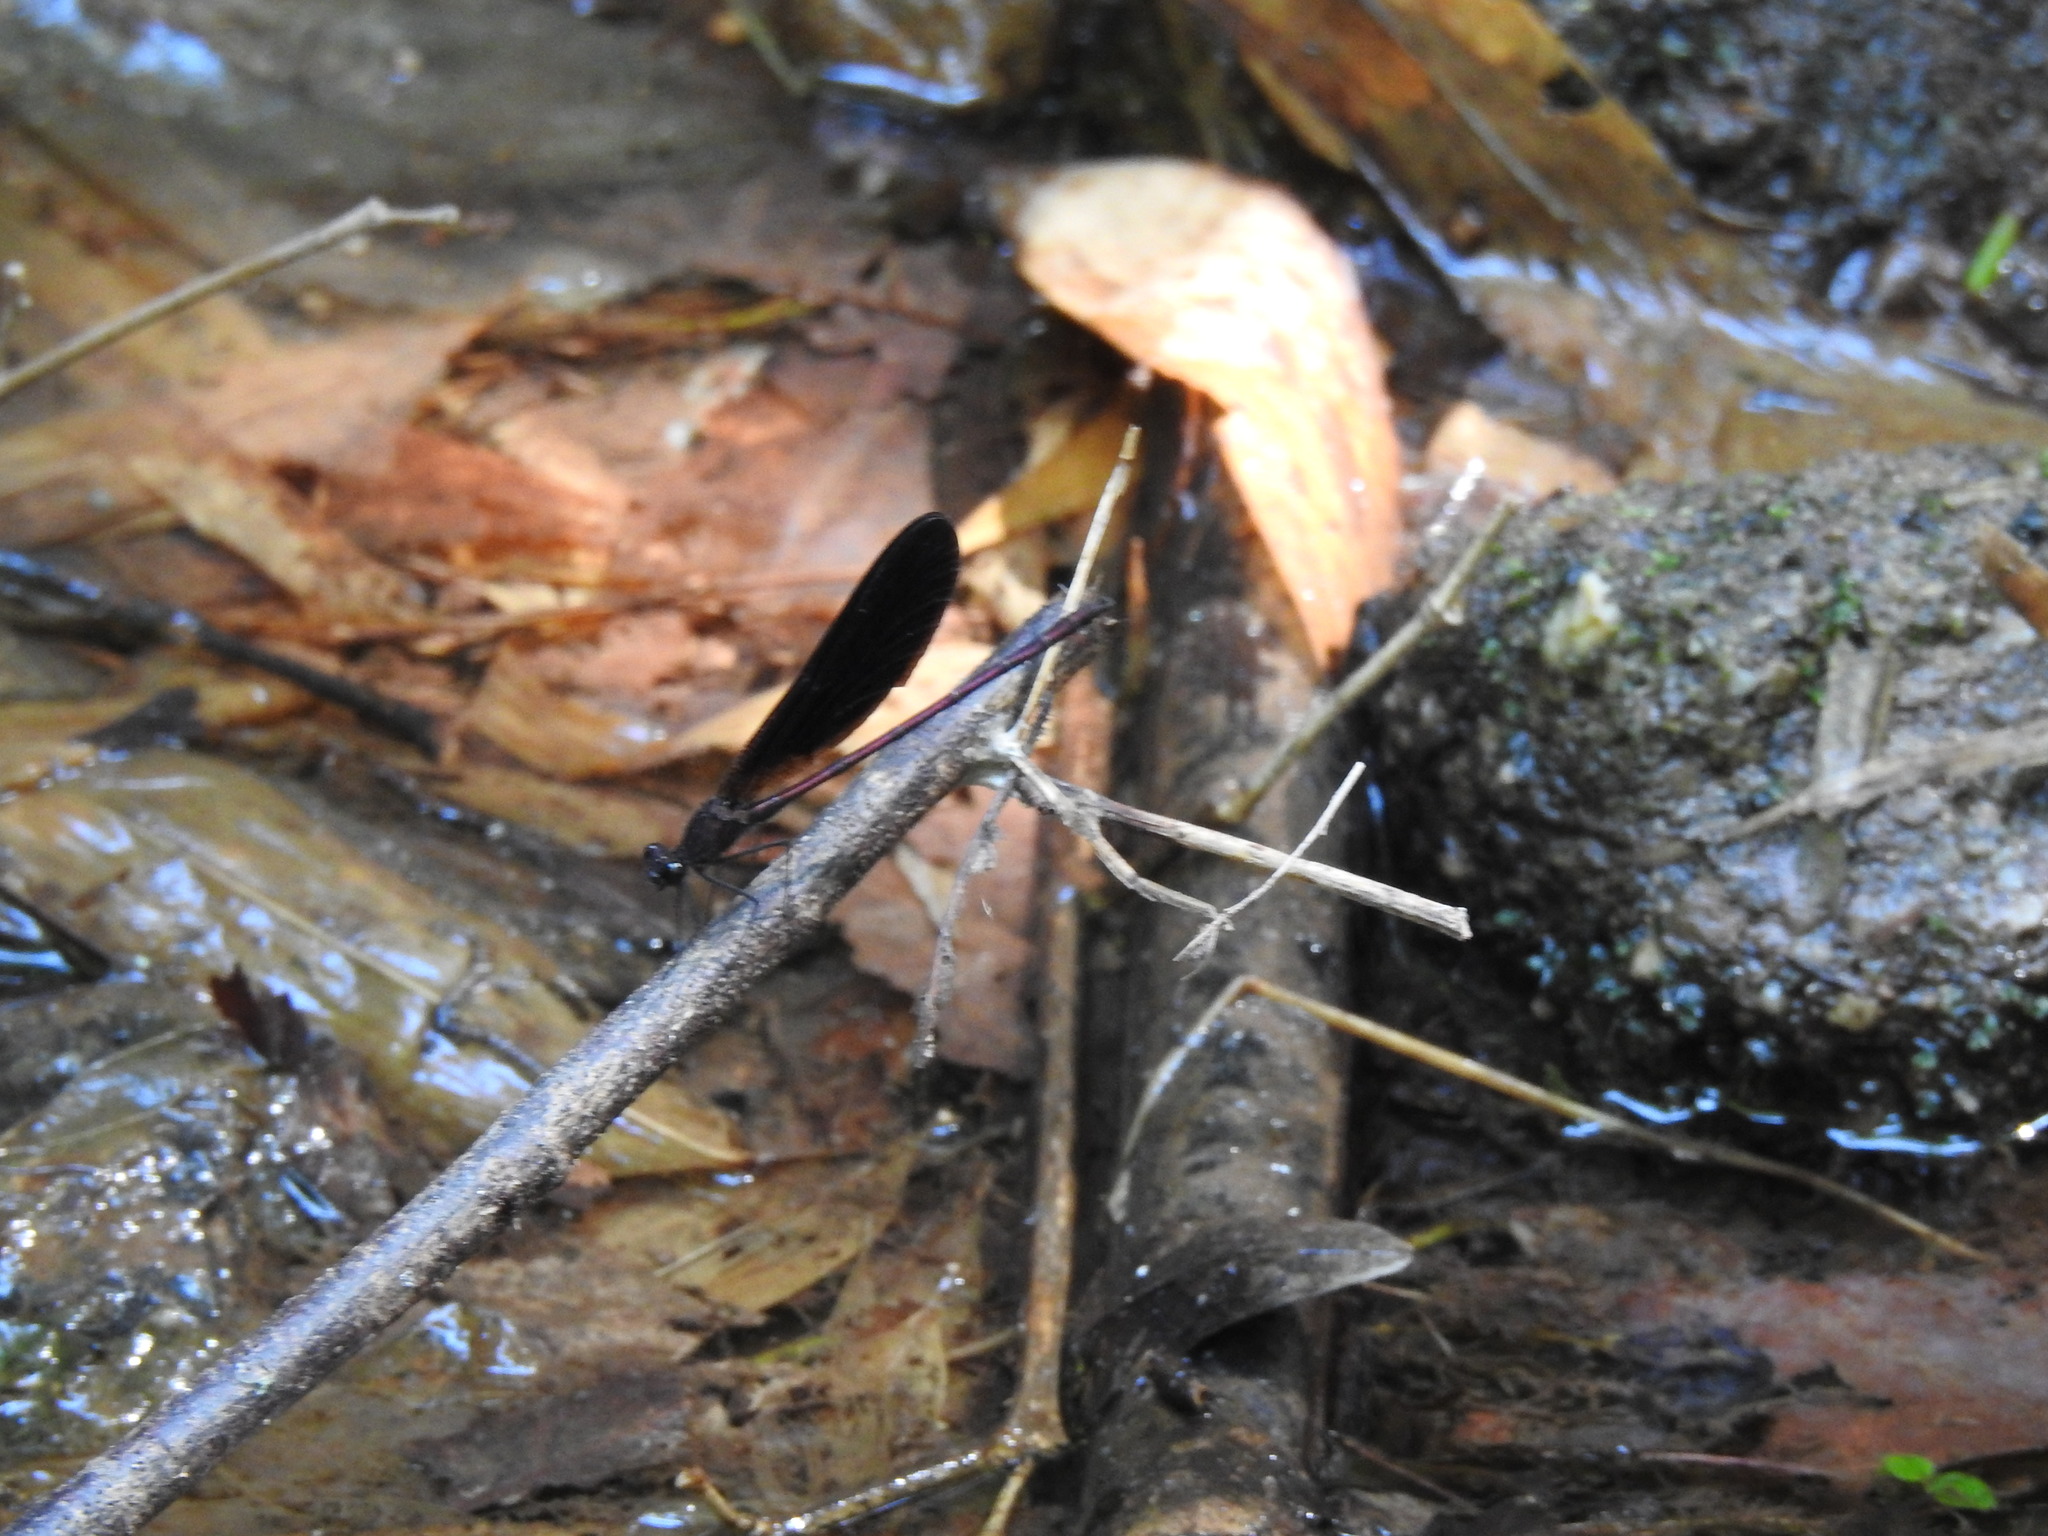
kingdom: Animalia
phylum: Arthropoda
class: Insecta
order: Odonata
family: Calopterygidae
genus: Calopteryx
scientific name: Calopteryx haemorrhoidalis
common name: Copper demoiselle
